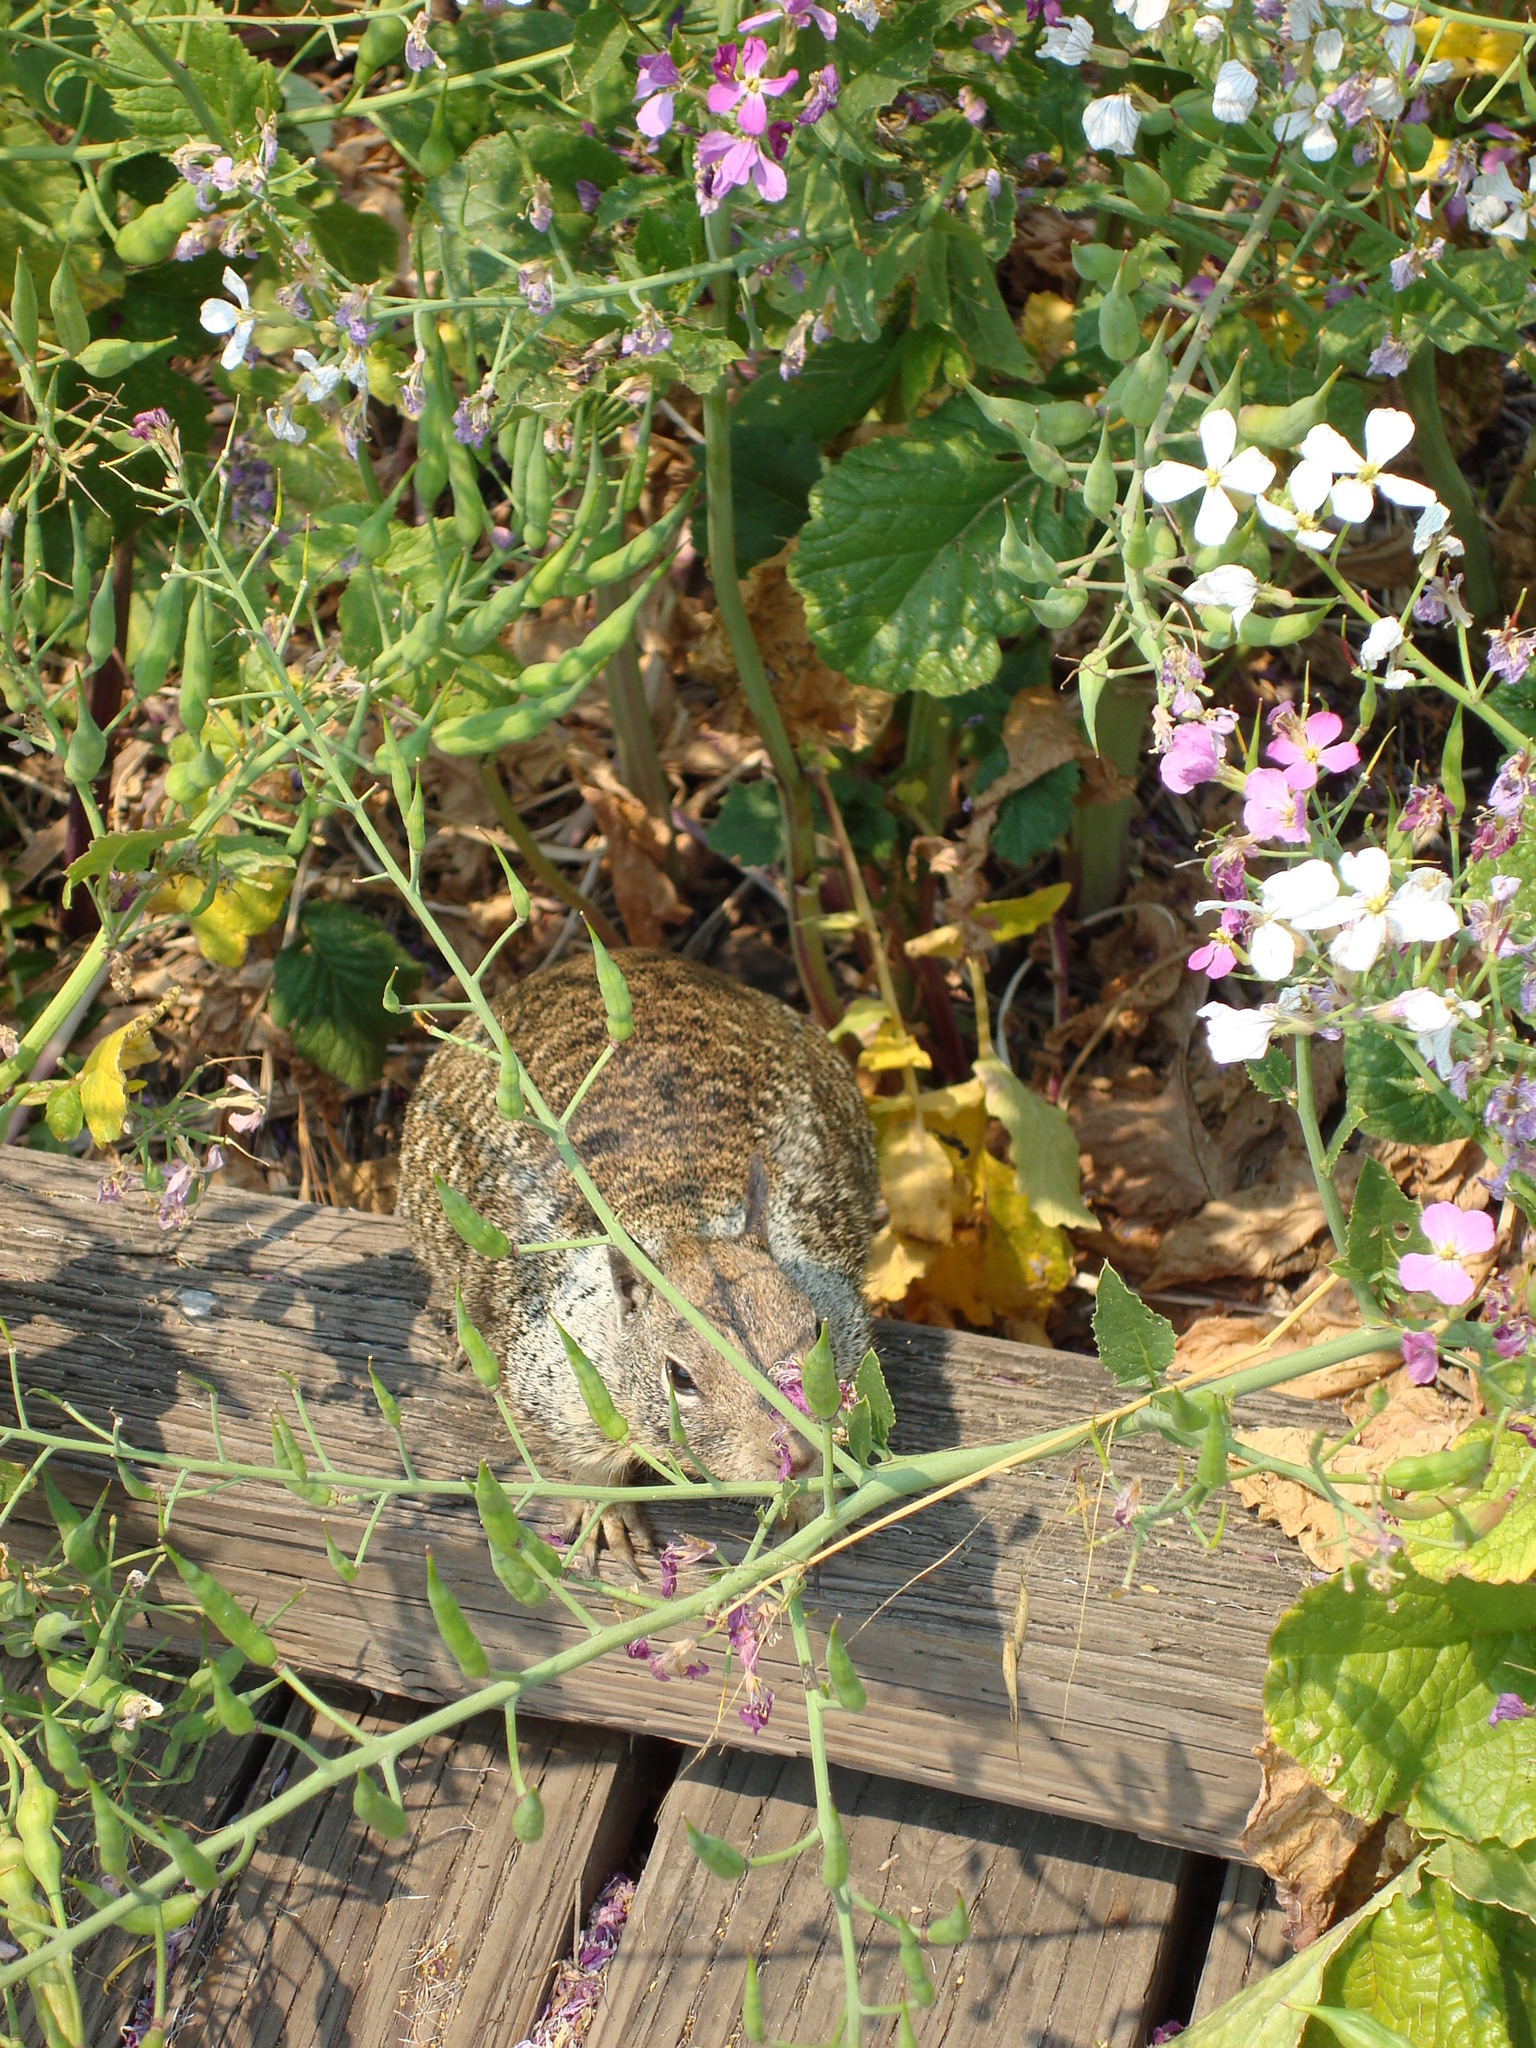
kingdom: Animalia
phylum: Chordata
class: Mammalia
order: Rodentia
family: Sciuridae
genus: Otospermophilus
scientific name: Otospermophilus beecheyi
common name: California ground squirrel
